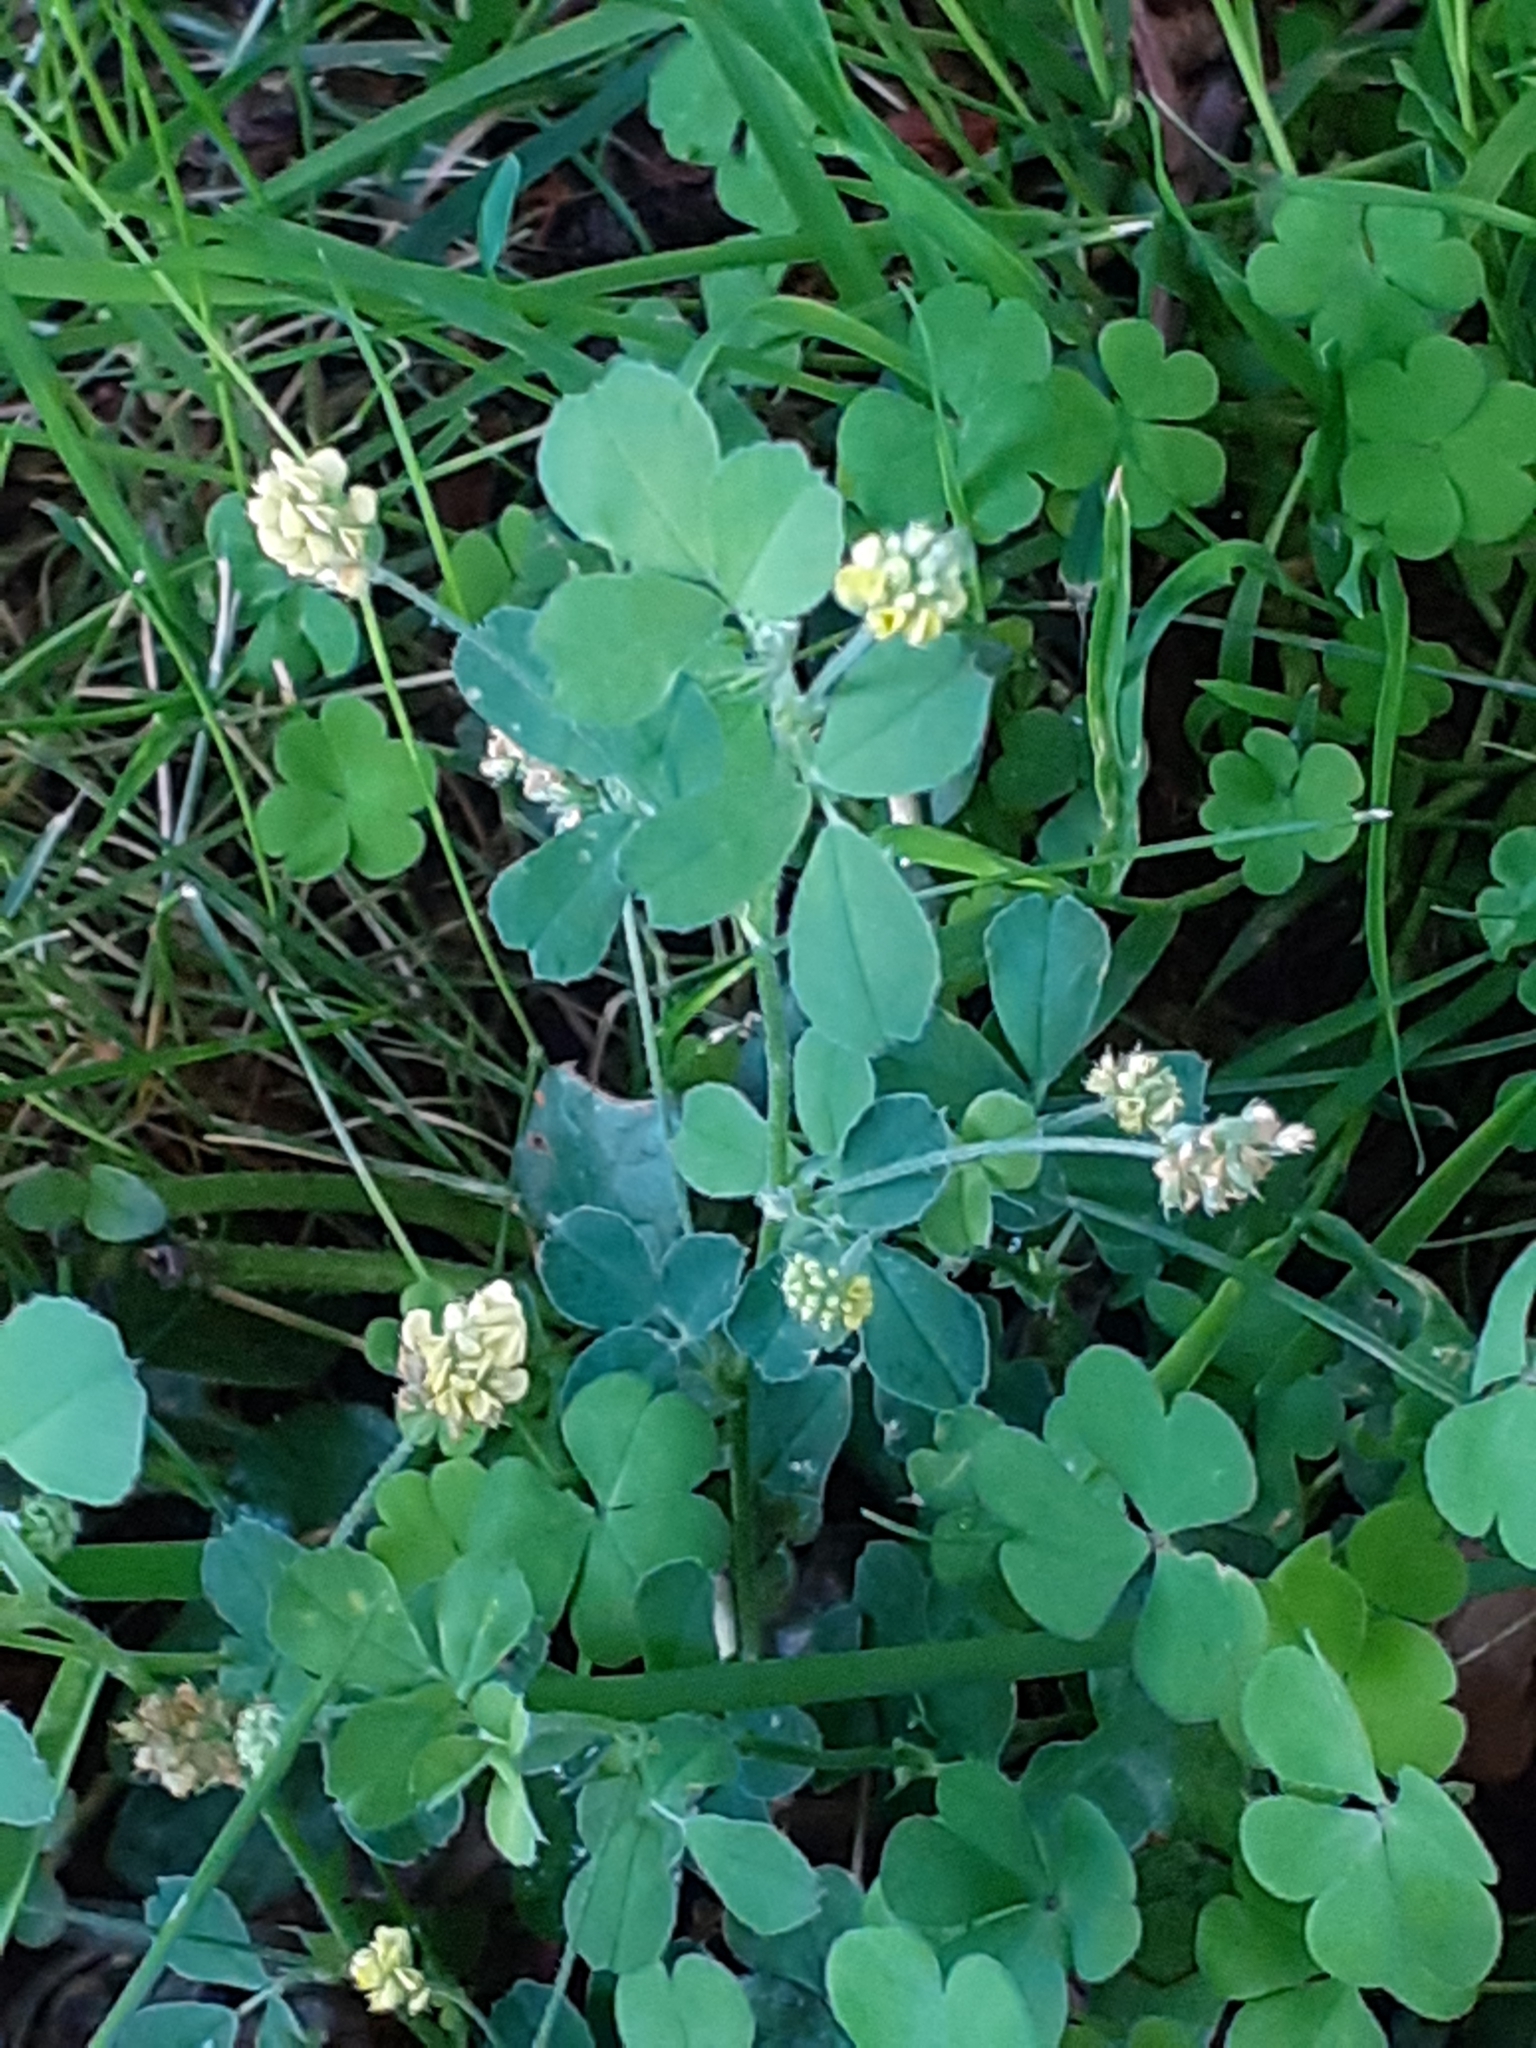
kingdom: Plantae
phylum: Tracheophyta
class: Magnoliopsida
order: Fabales
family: Fabaceae
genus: Medicago
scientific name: Medicago lupulina
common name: Black medick
